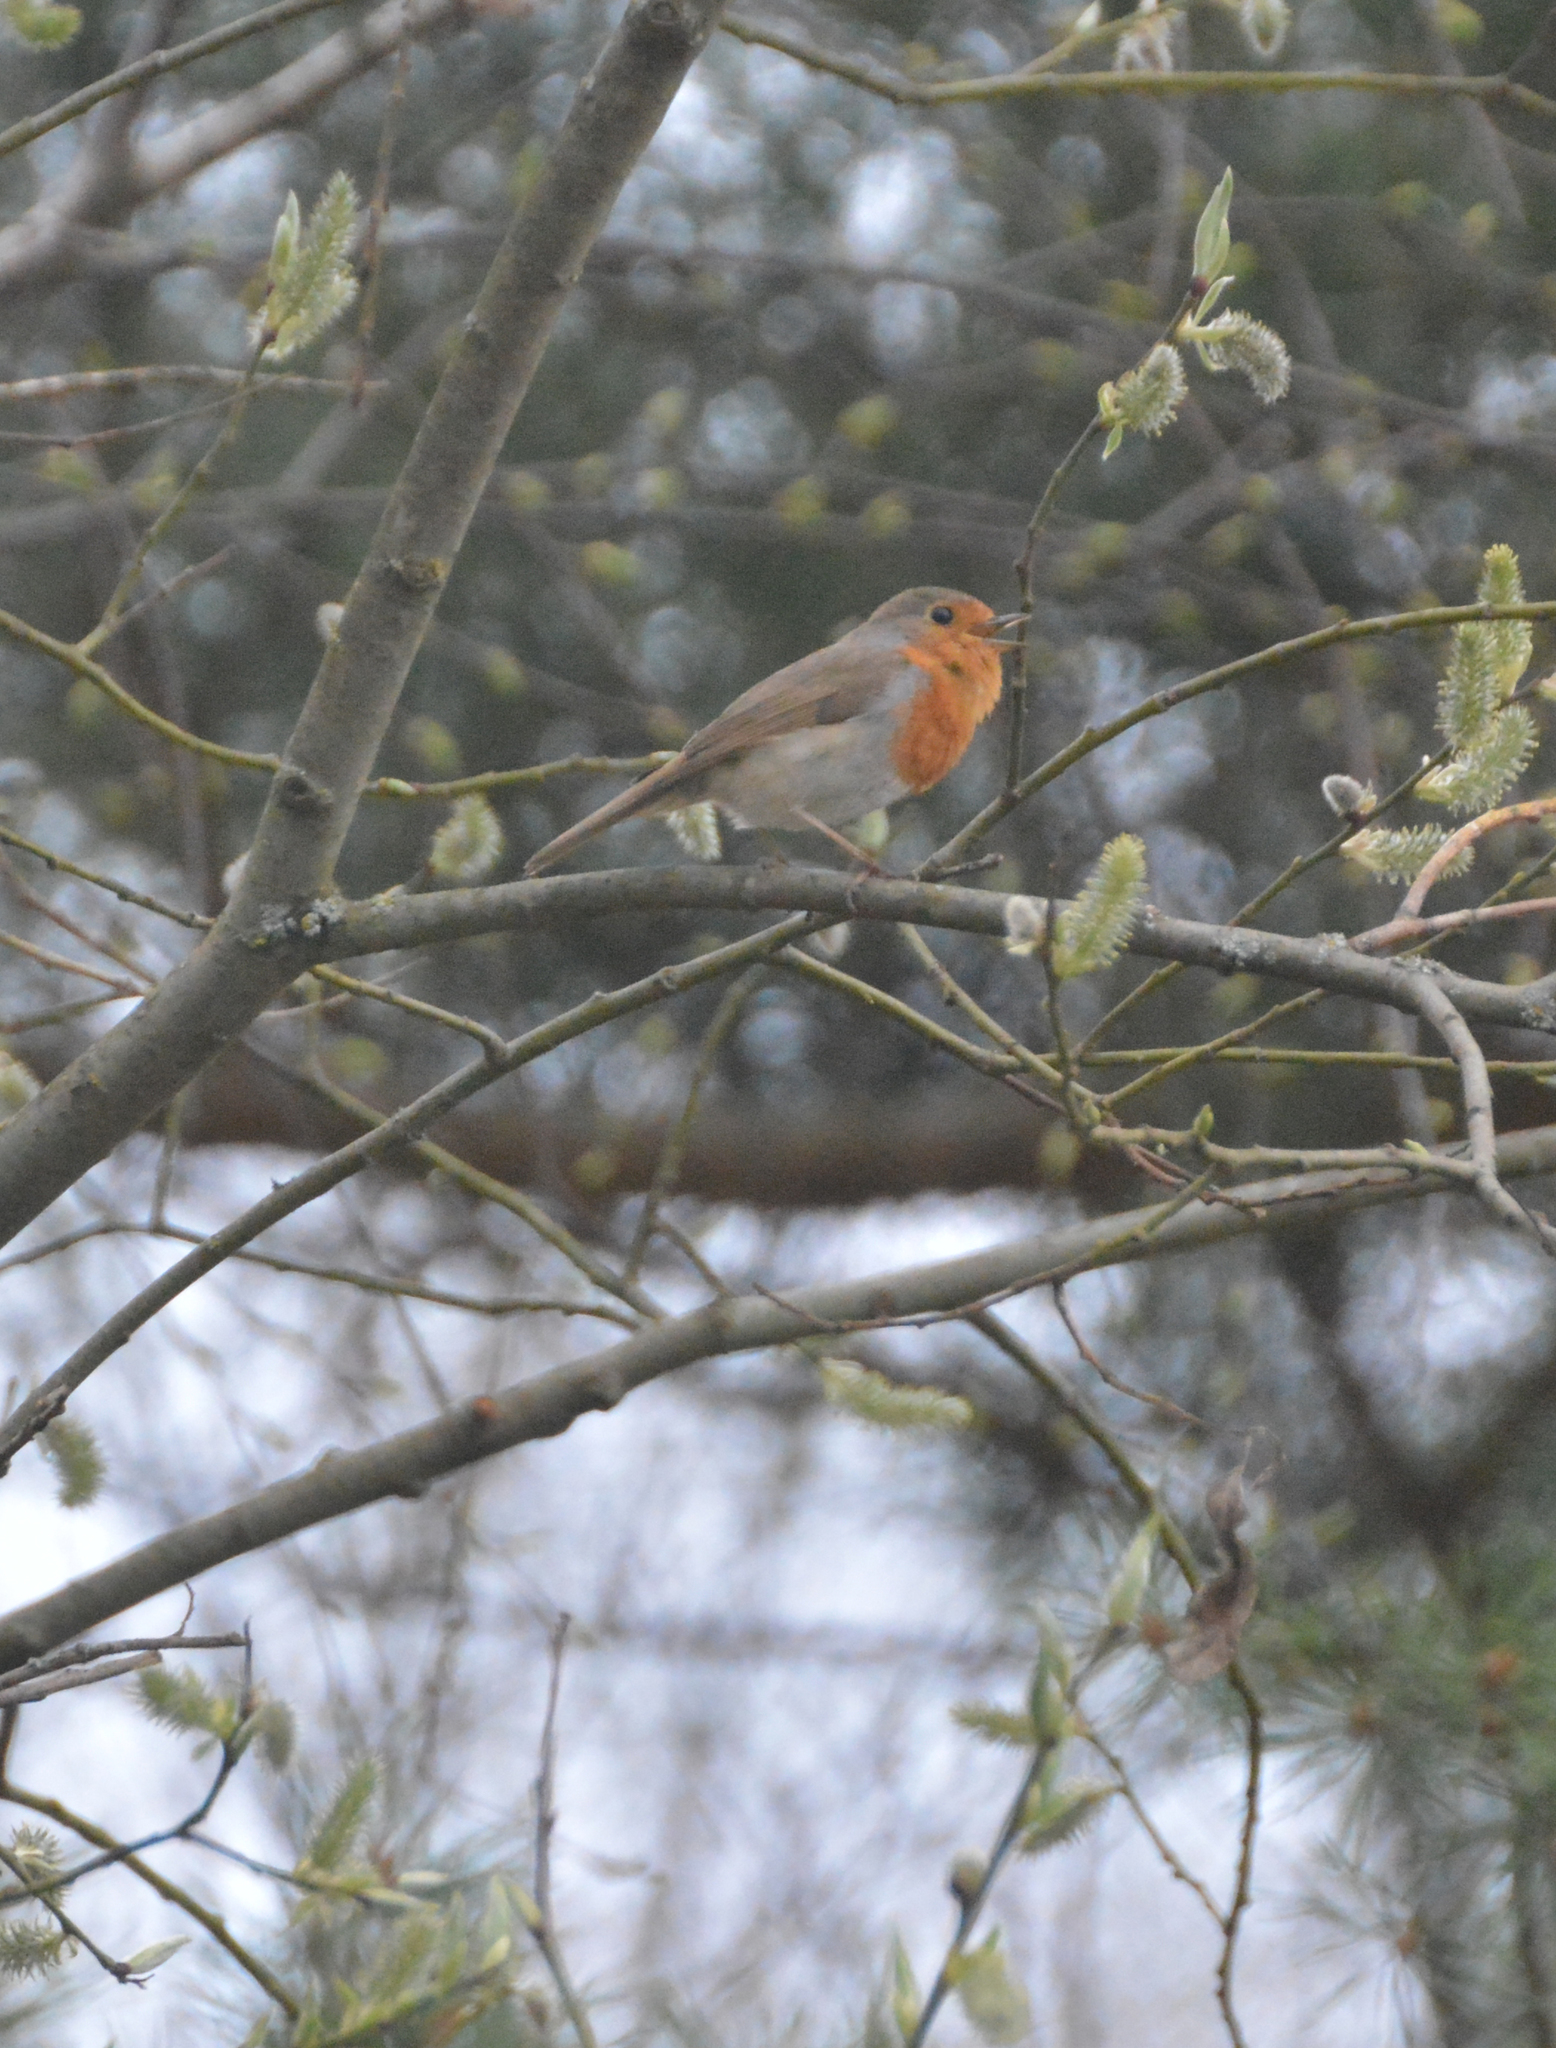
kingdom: Animalia
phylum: Chordata
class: Aves
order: Passeriformes
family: Muscicapidae
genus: Erithacus
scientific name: Erithacus rubecula
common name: European robin
